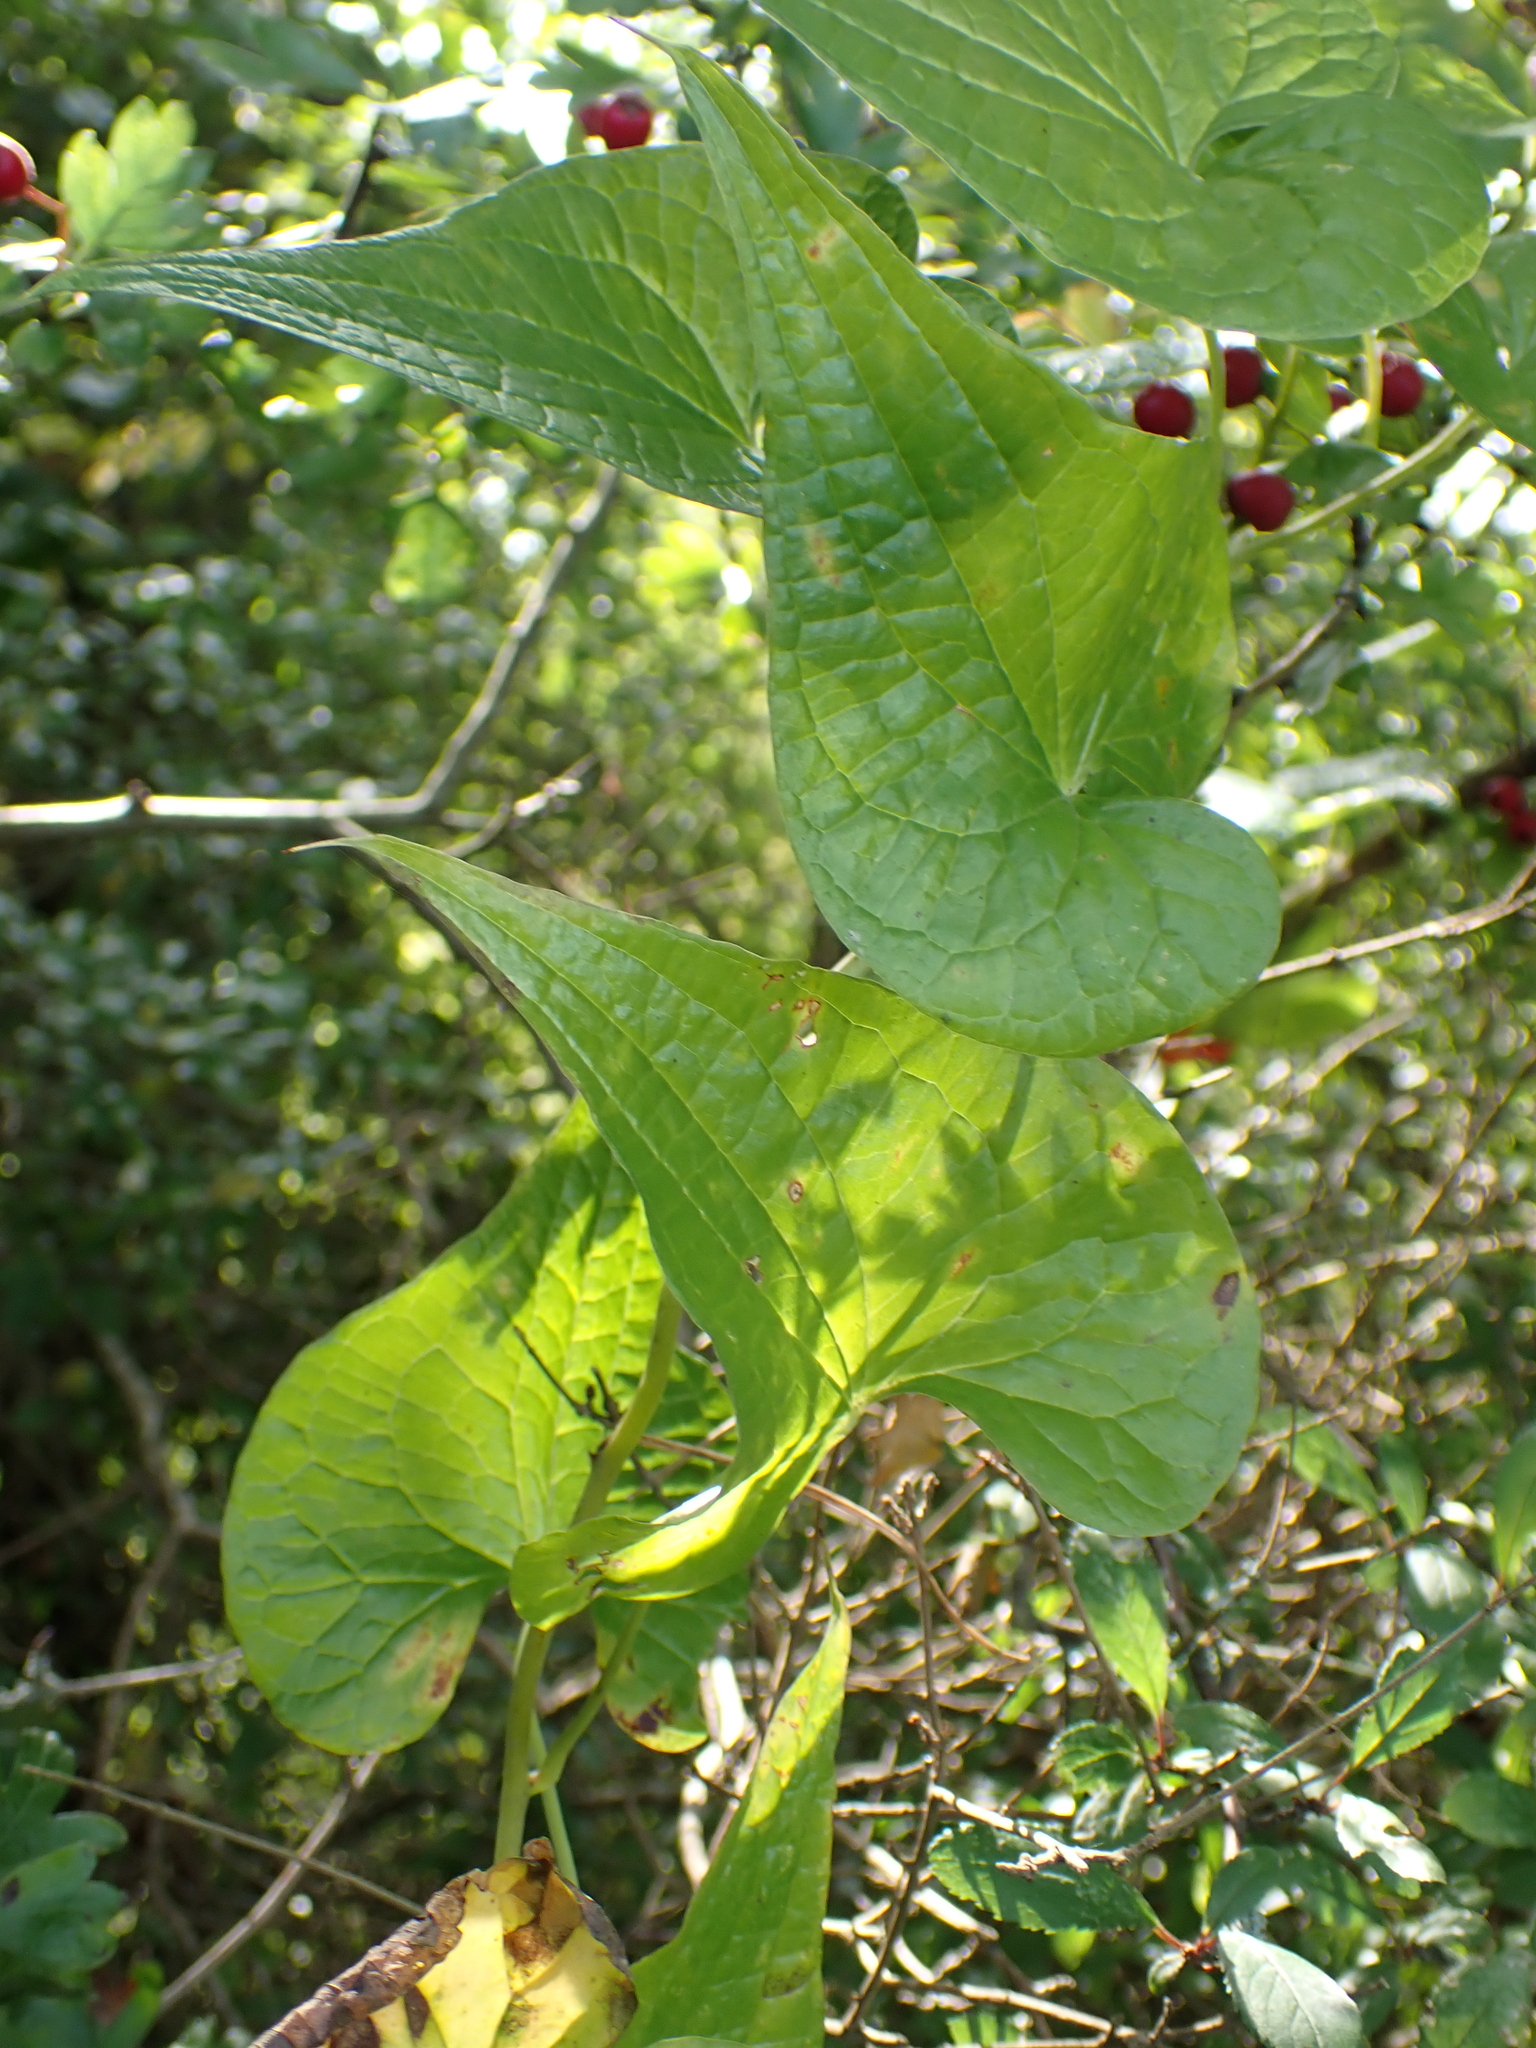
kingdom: Plantae
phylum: Tracheophyta
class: Liliopsida
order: Dioscoreales
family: Dioscoreaceae
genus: Dioscorea
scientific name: Dioscorea communis
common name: Black-bindweed
